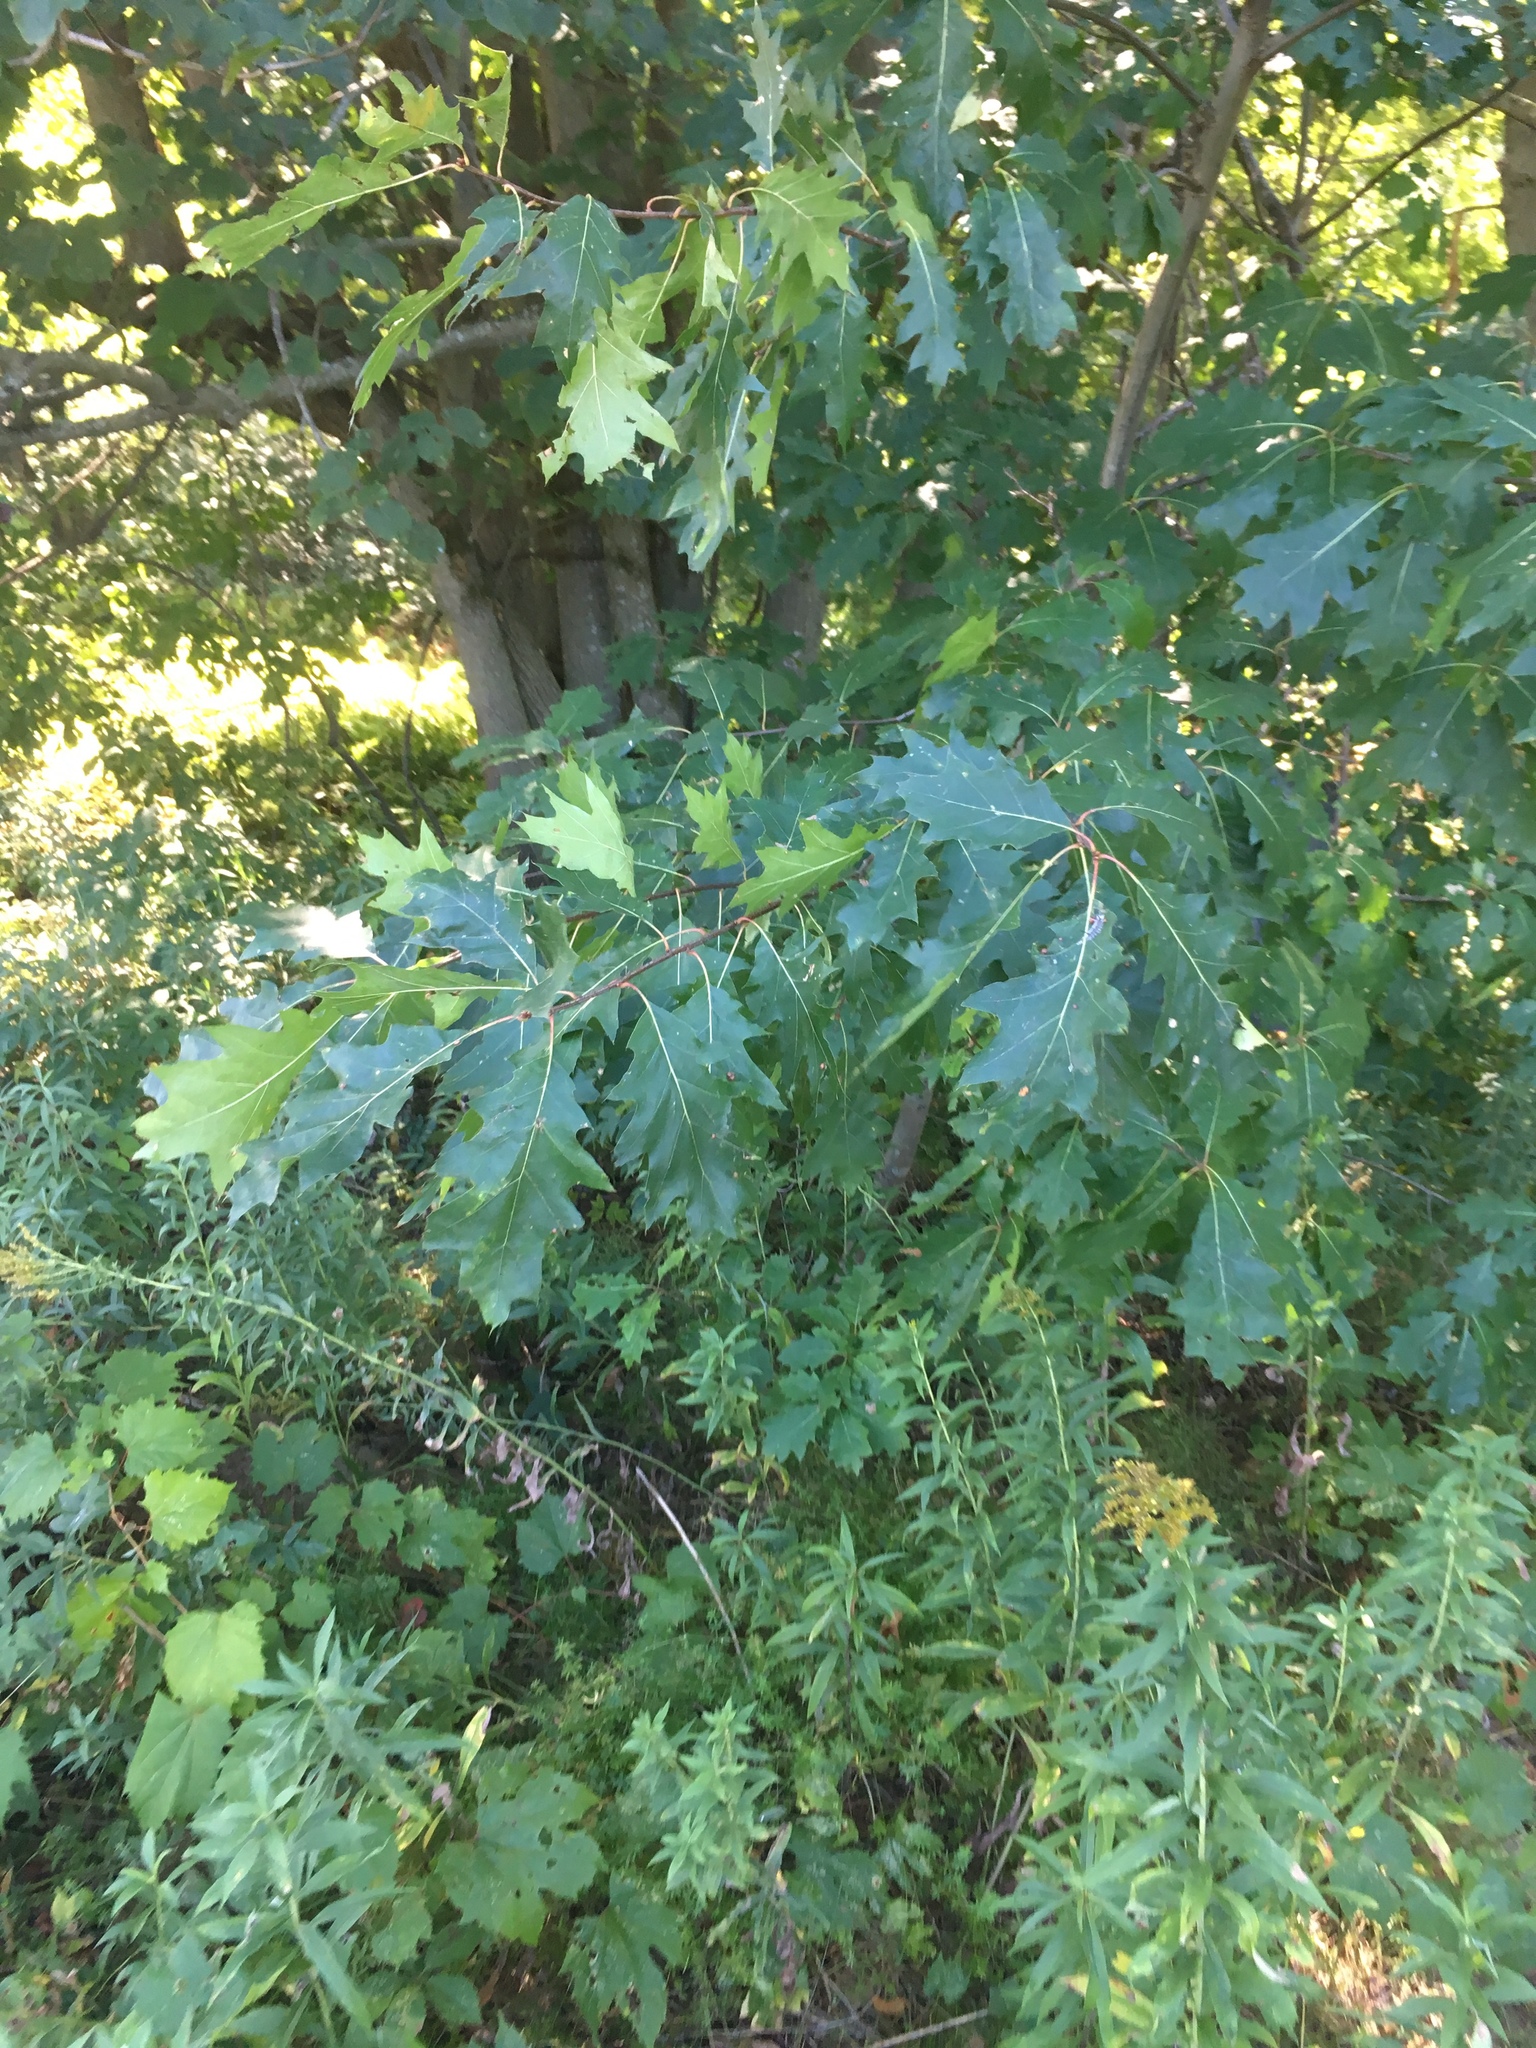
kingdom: Plantae
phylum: Tracheophyta
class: Magnoliopsida
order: Fagales
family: Fagaceae
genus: Quercus
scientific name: Quercus rubra
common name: Red oak
